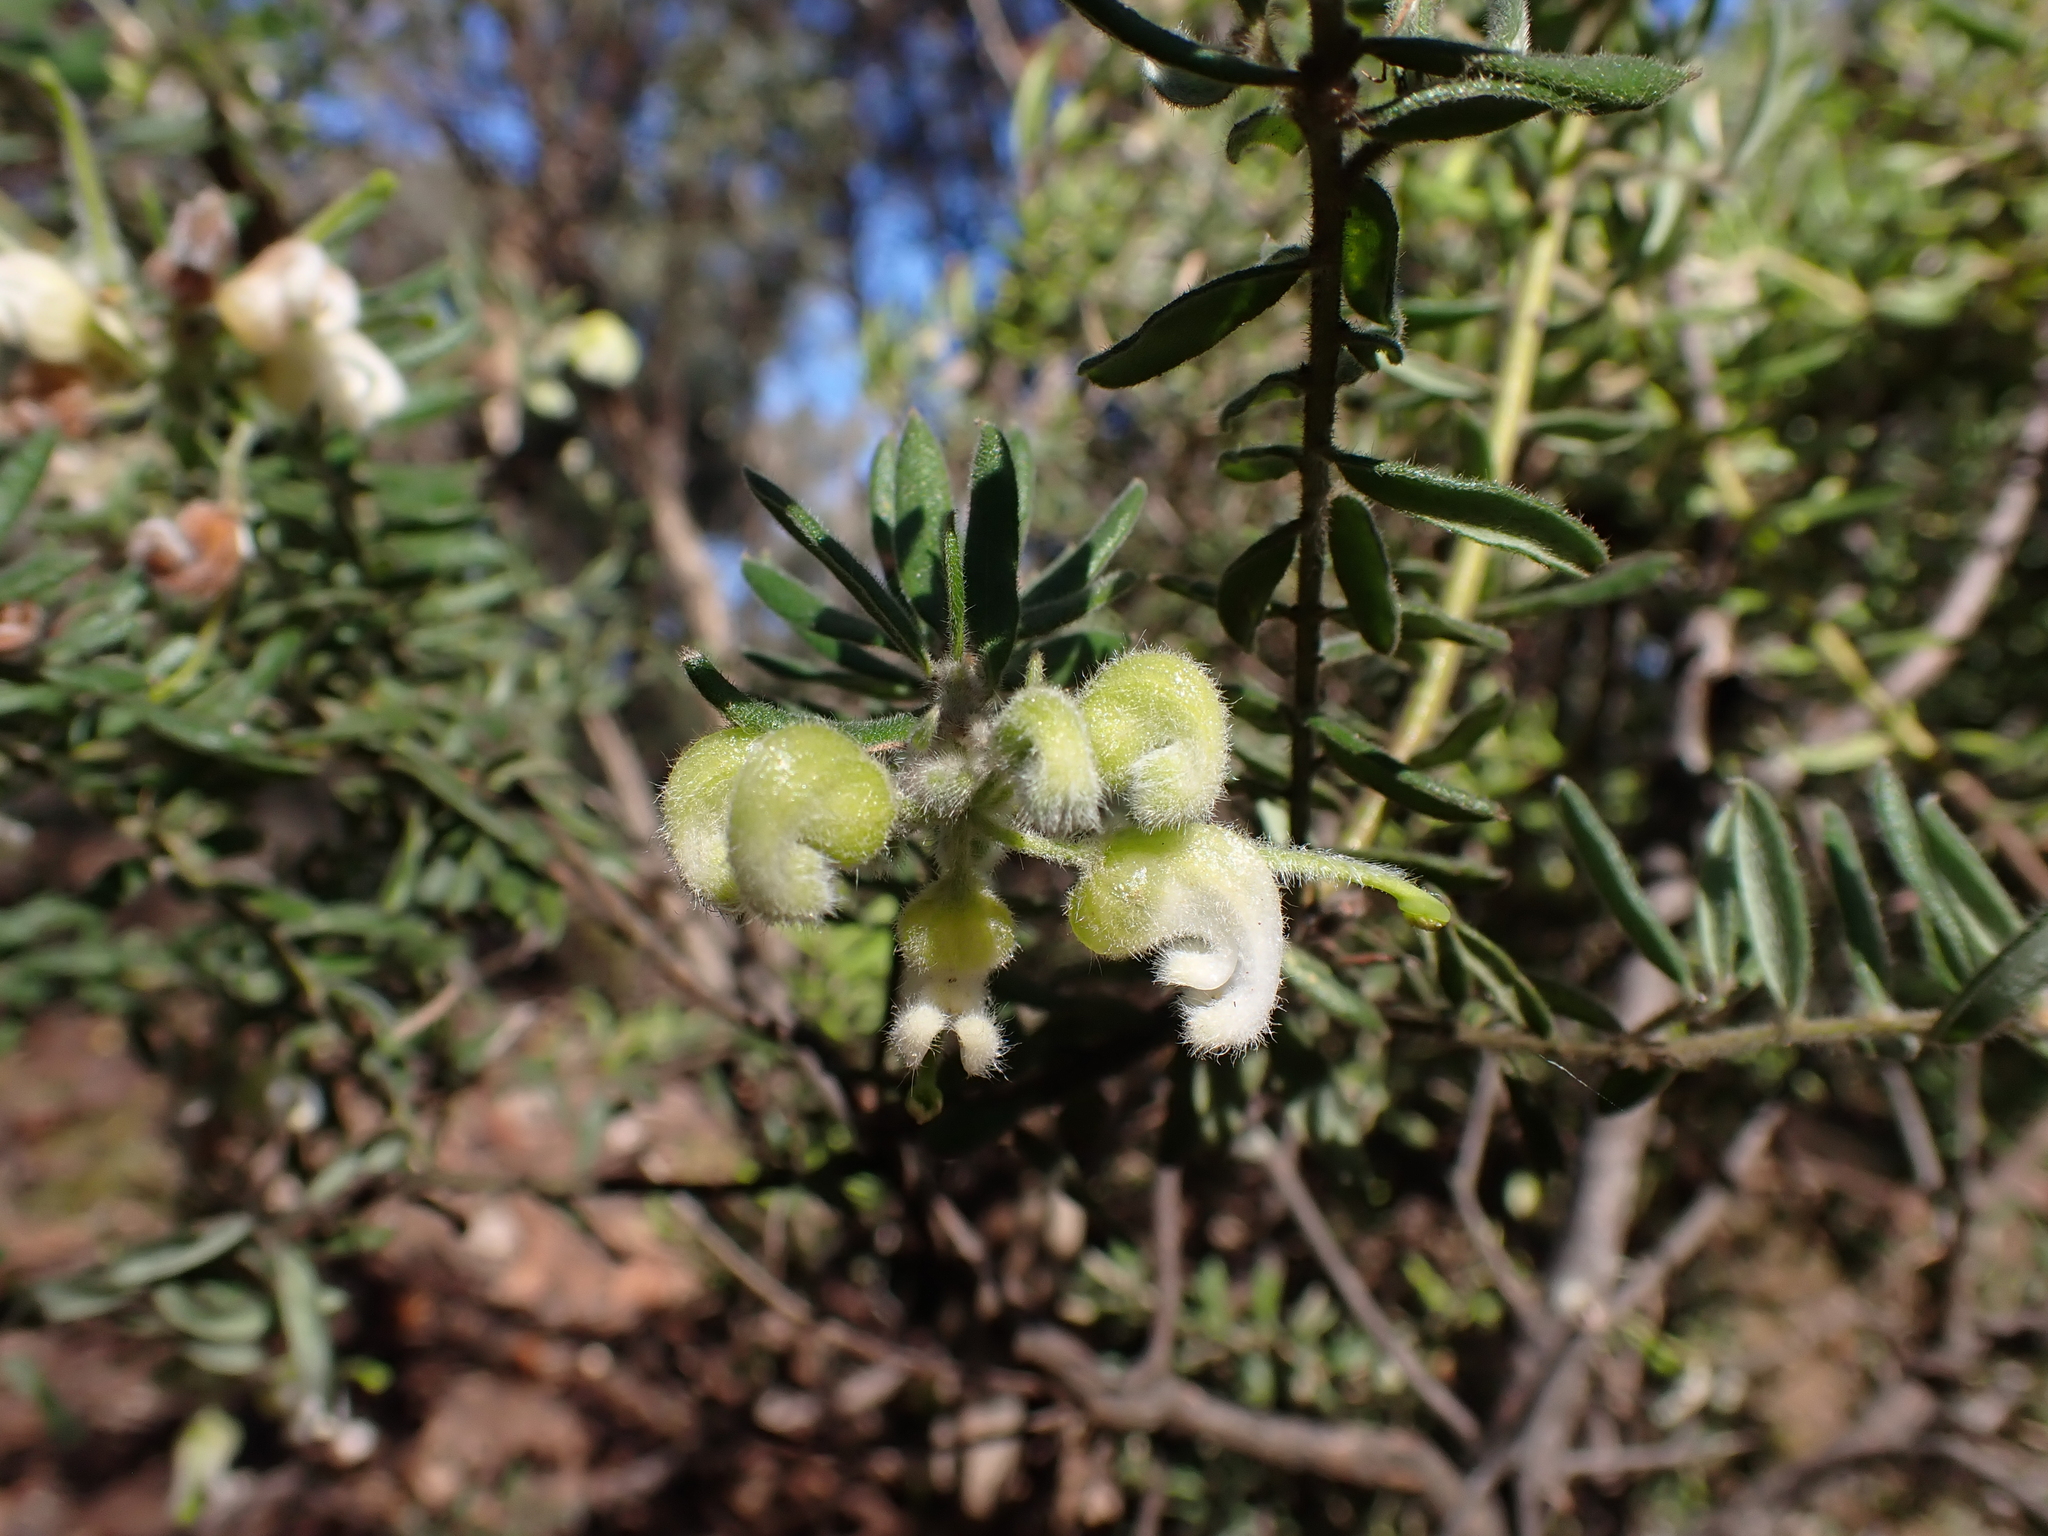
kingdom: Plantae
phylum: Tracheophyta
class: Magnoliopsida
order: Proteales
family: Proteaceae
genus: Grevillea
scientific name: Grevillea alpina
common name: Catclaws grevillea
